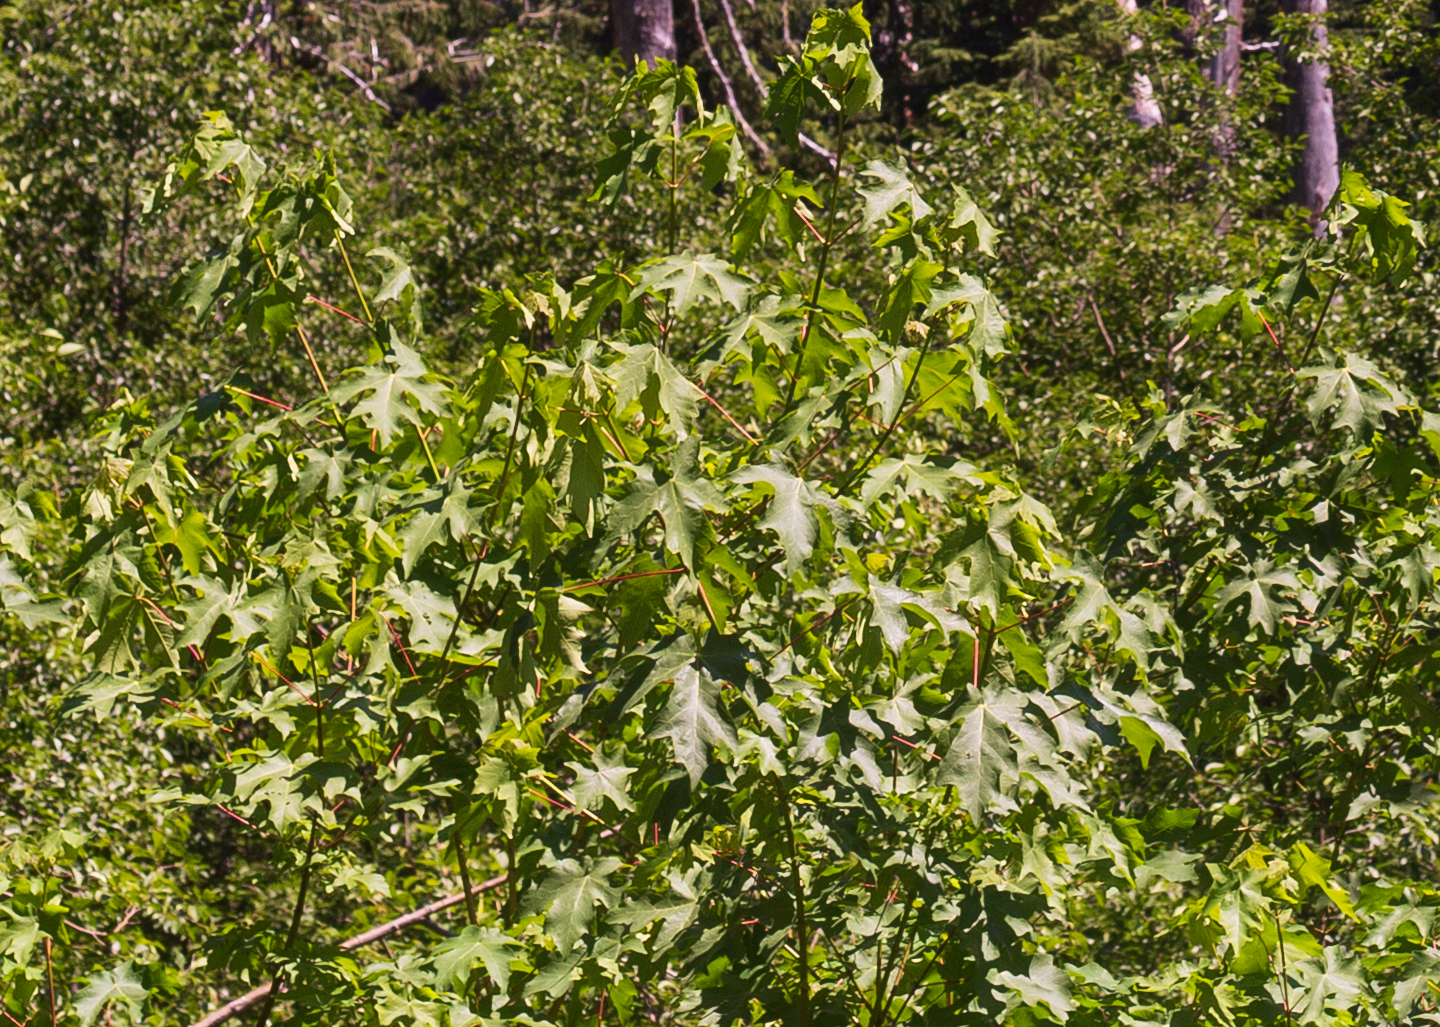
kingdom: Plantae
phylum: Tracheophyta
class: Magnoliopsida
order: Sapindales
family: Sapindaceae
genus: Acer
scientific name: Acer macrophyllum
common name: Oregon maple
